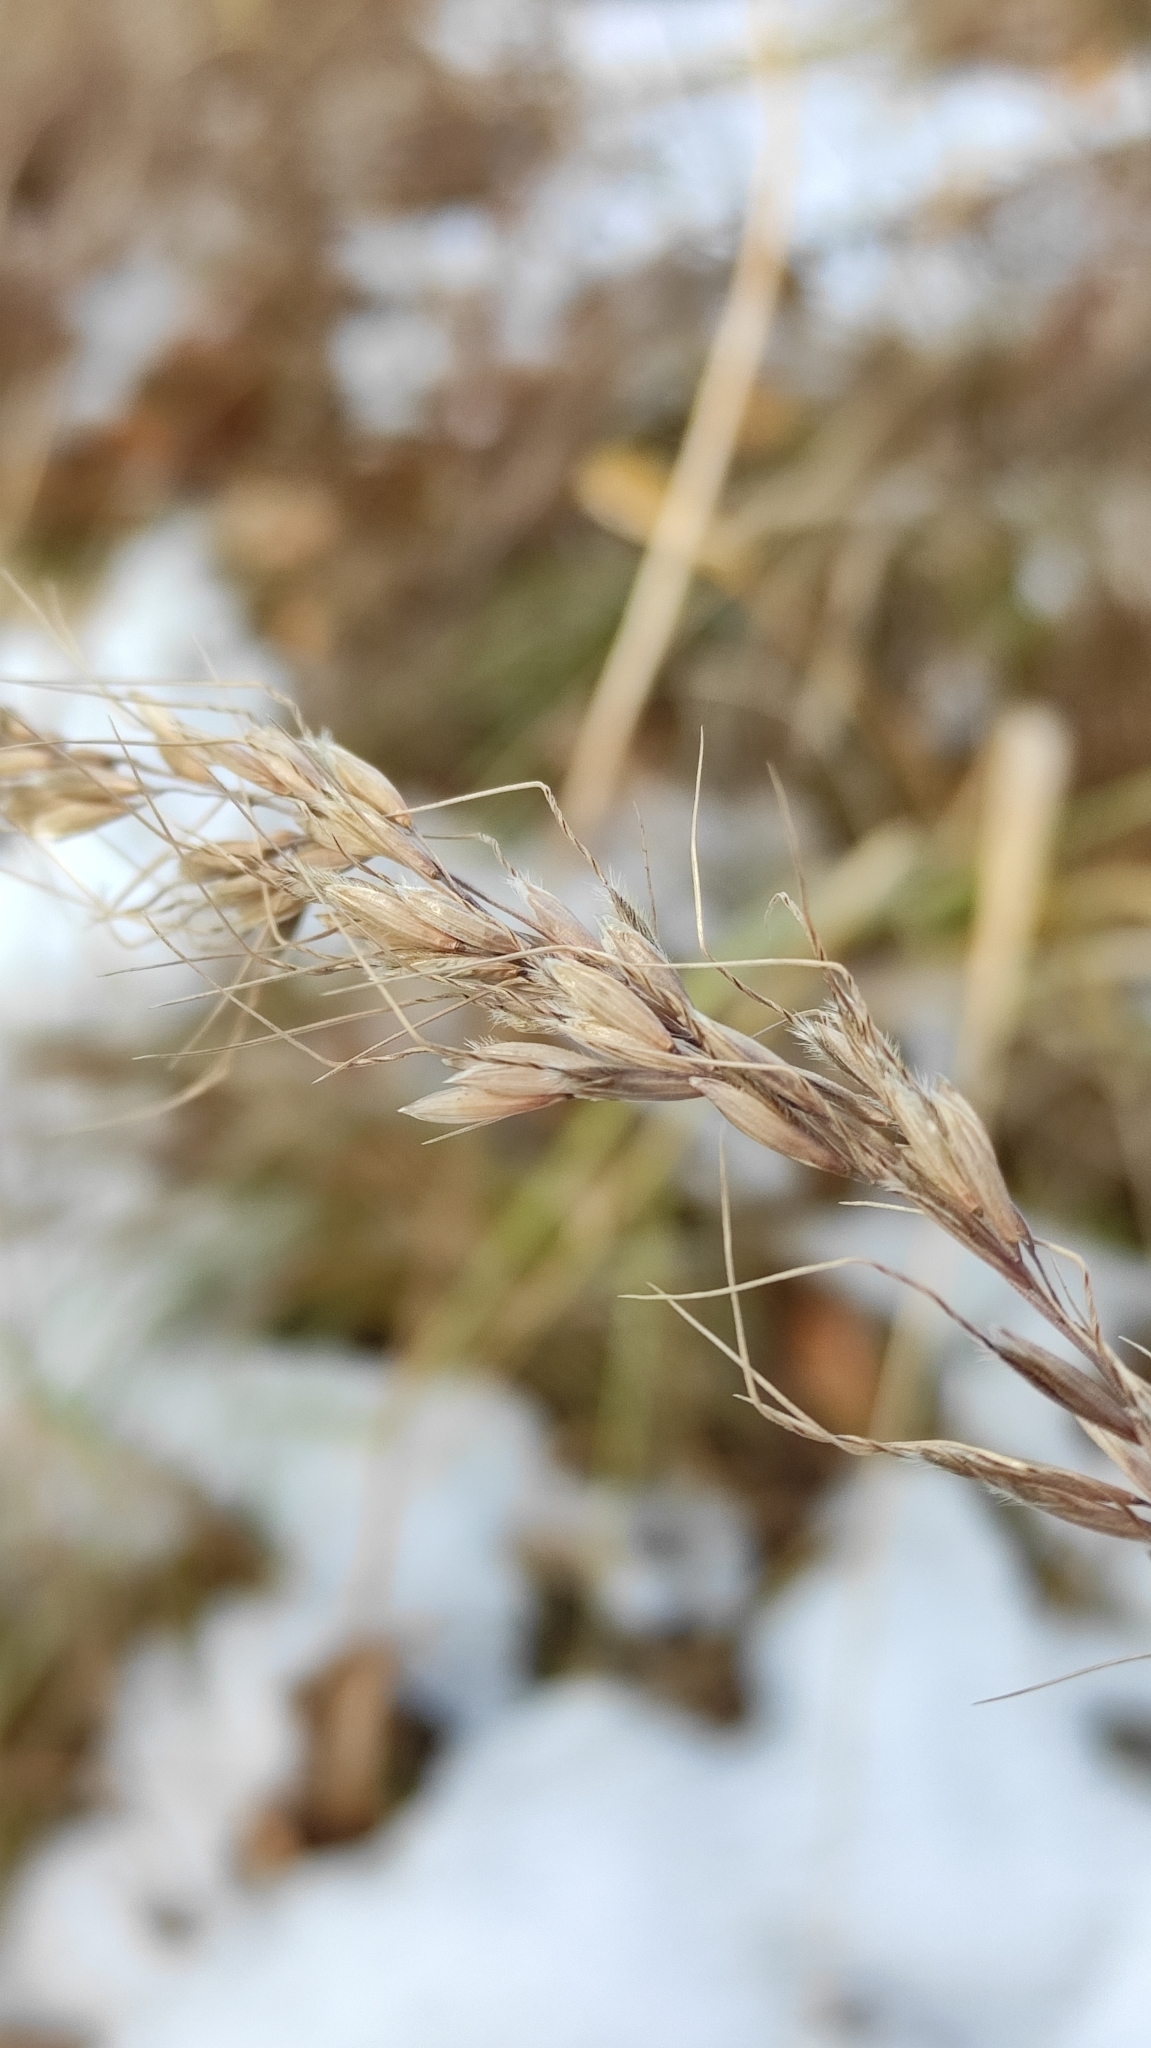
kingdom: Plantae
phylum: Tracheophyta
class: Liliopsida
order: Poales
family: Poaceae
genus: Avena
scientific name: Avena fatua
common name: Wild oat
